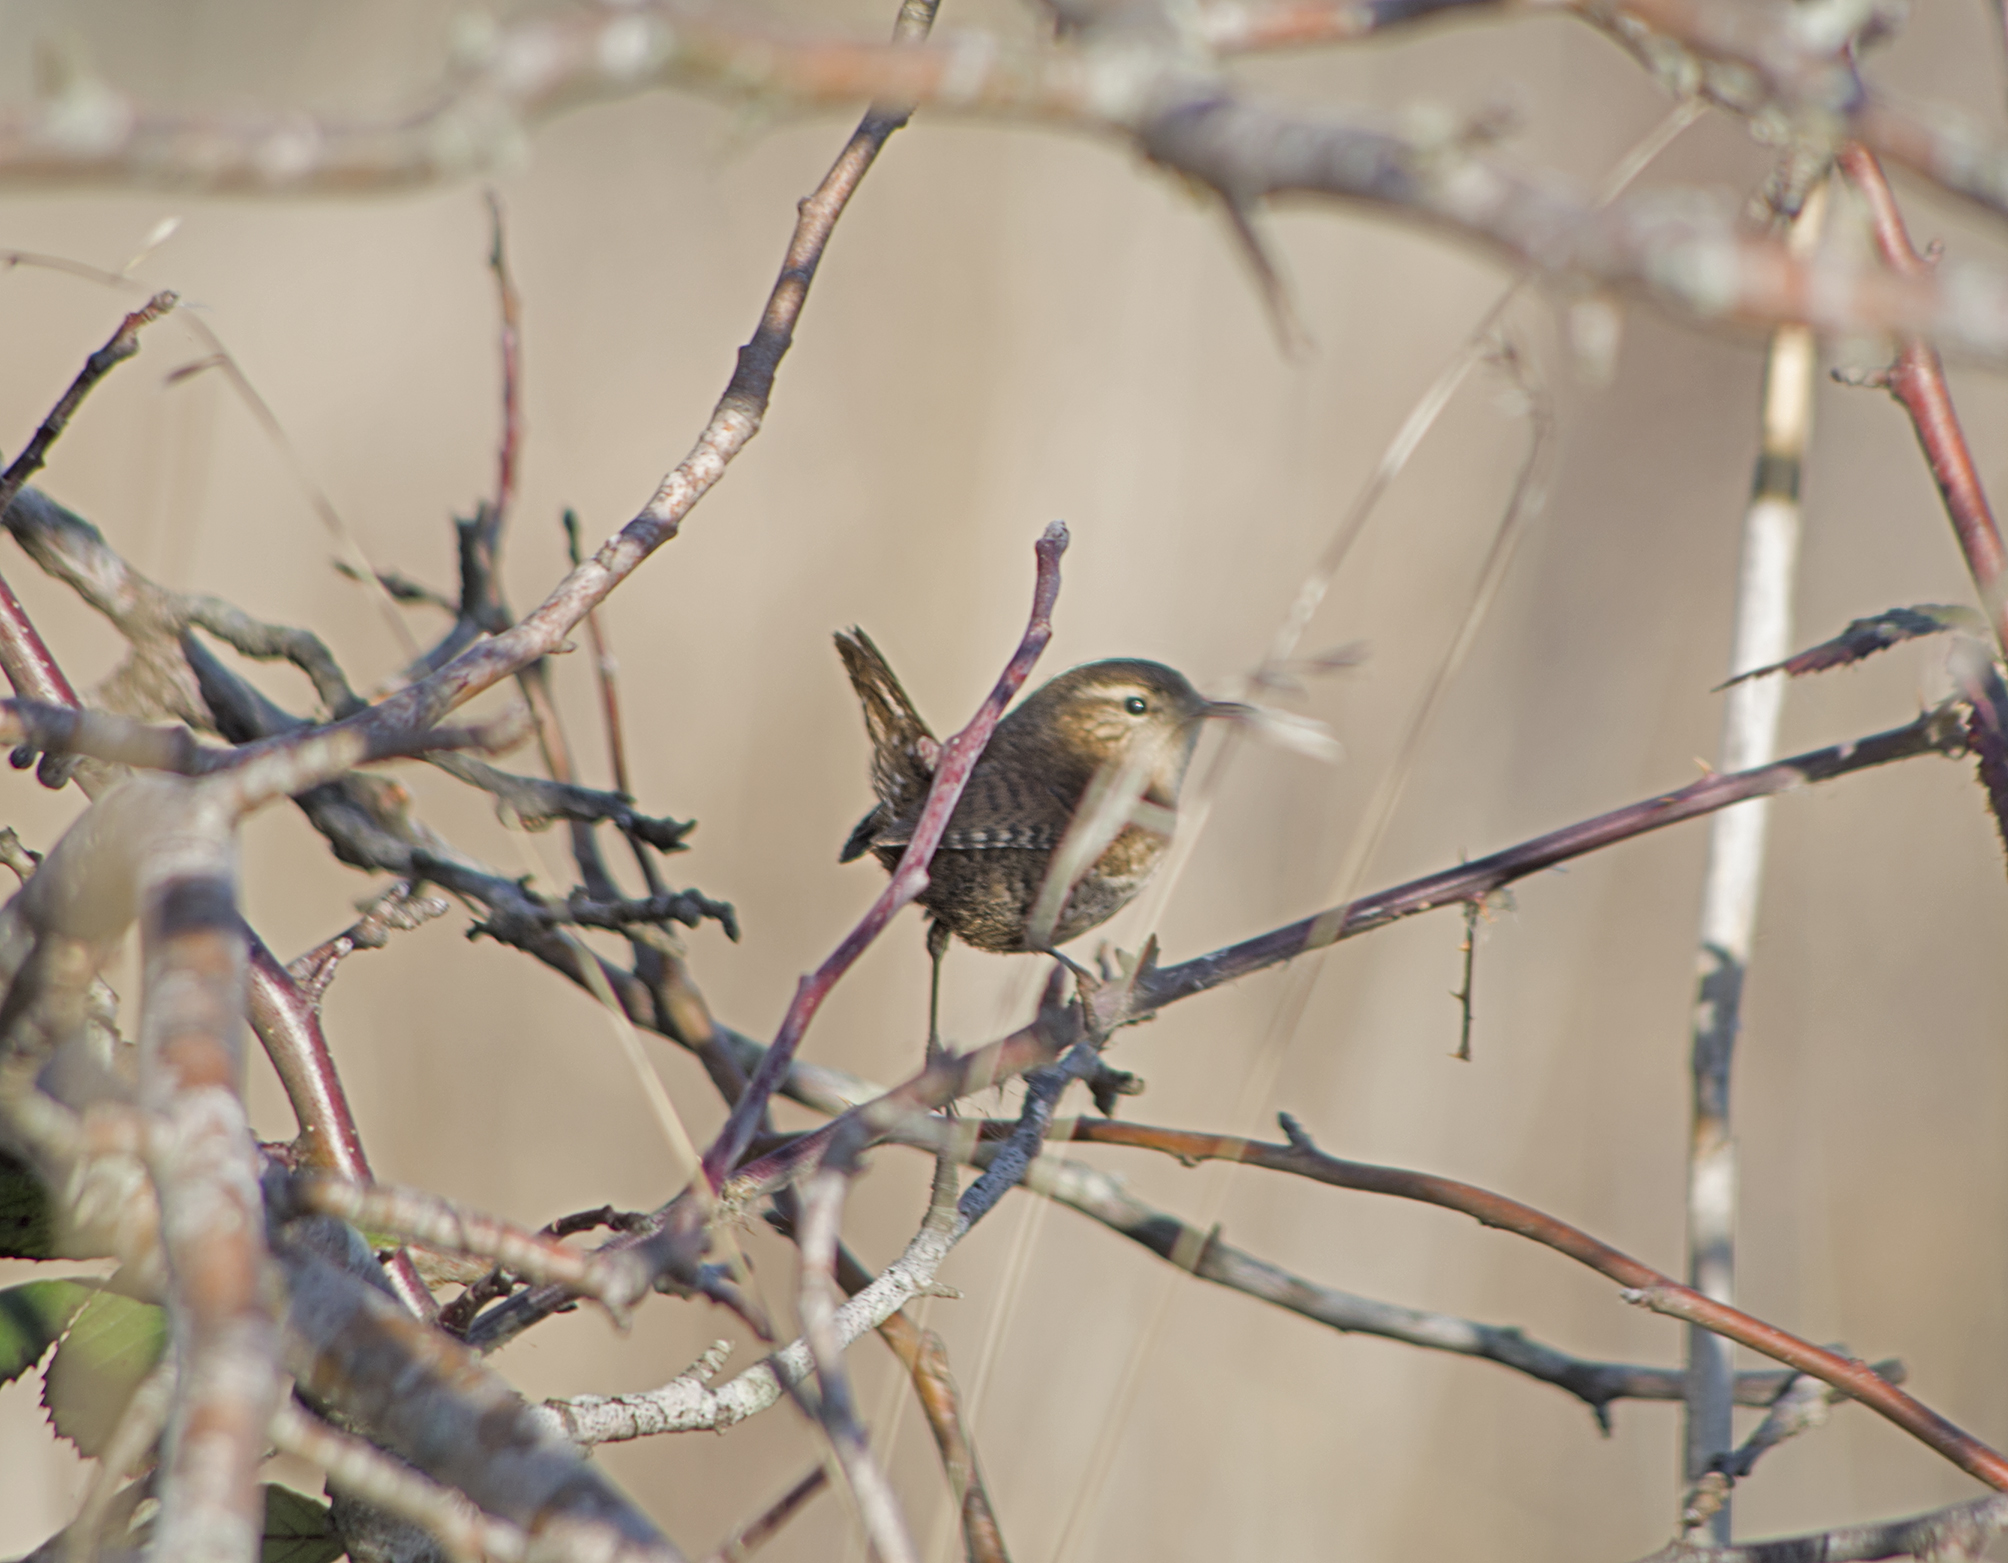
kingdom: Animalia
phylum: Chordata
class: Aves
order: Passeriformes
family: Troglodytidae
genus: Troglodytes
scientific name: Troglodytes troglodytes
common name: Eurasian wren
